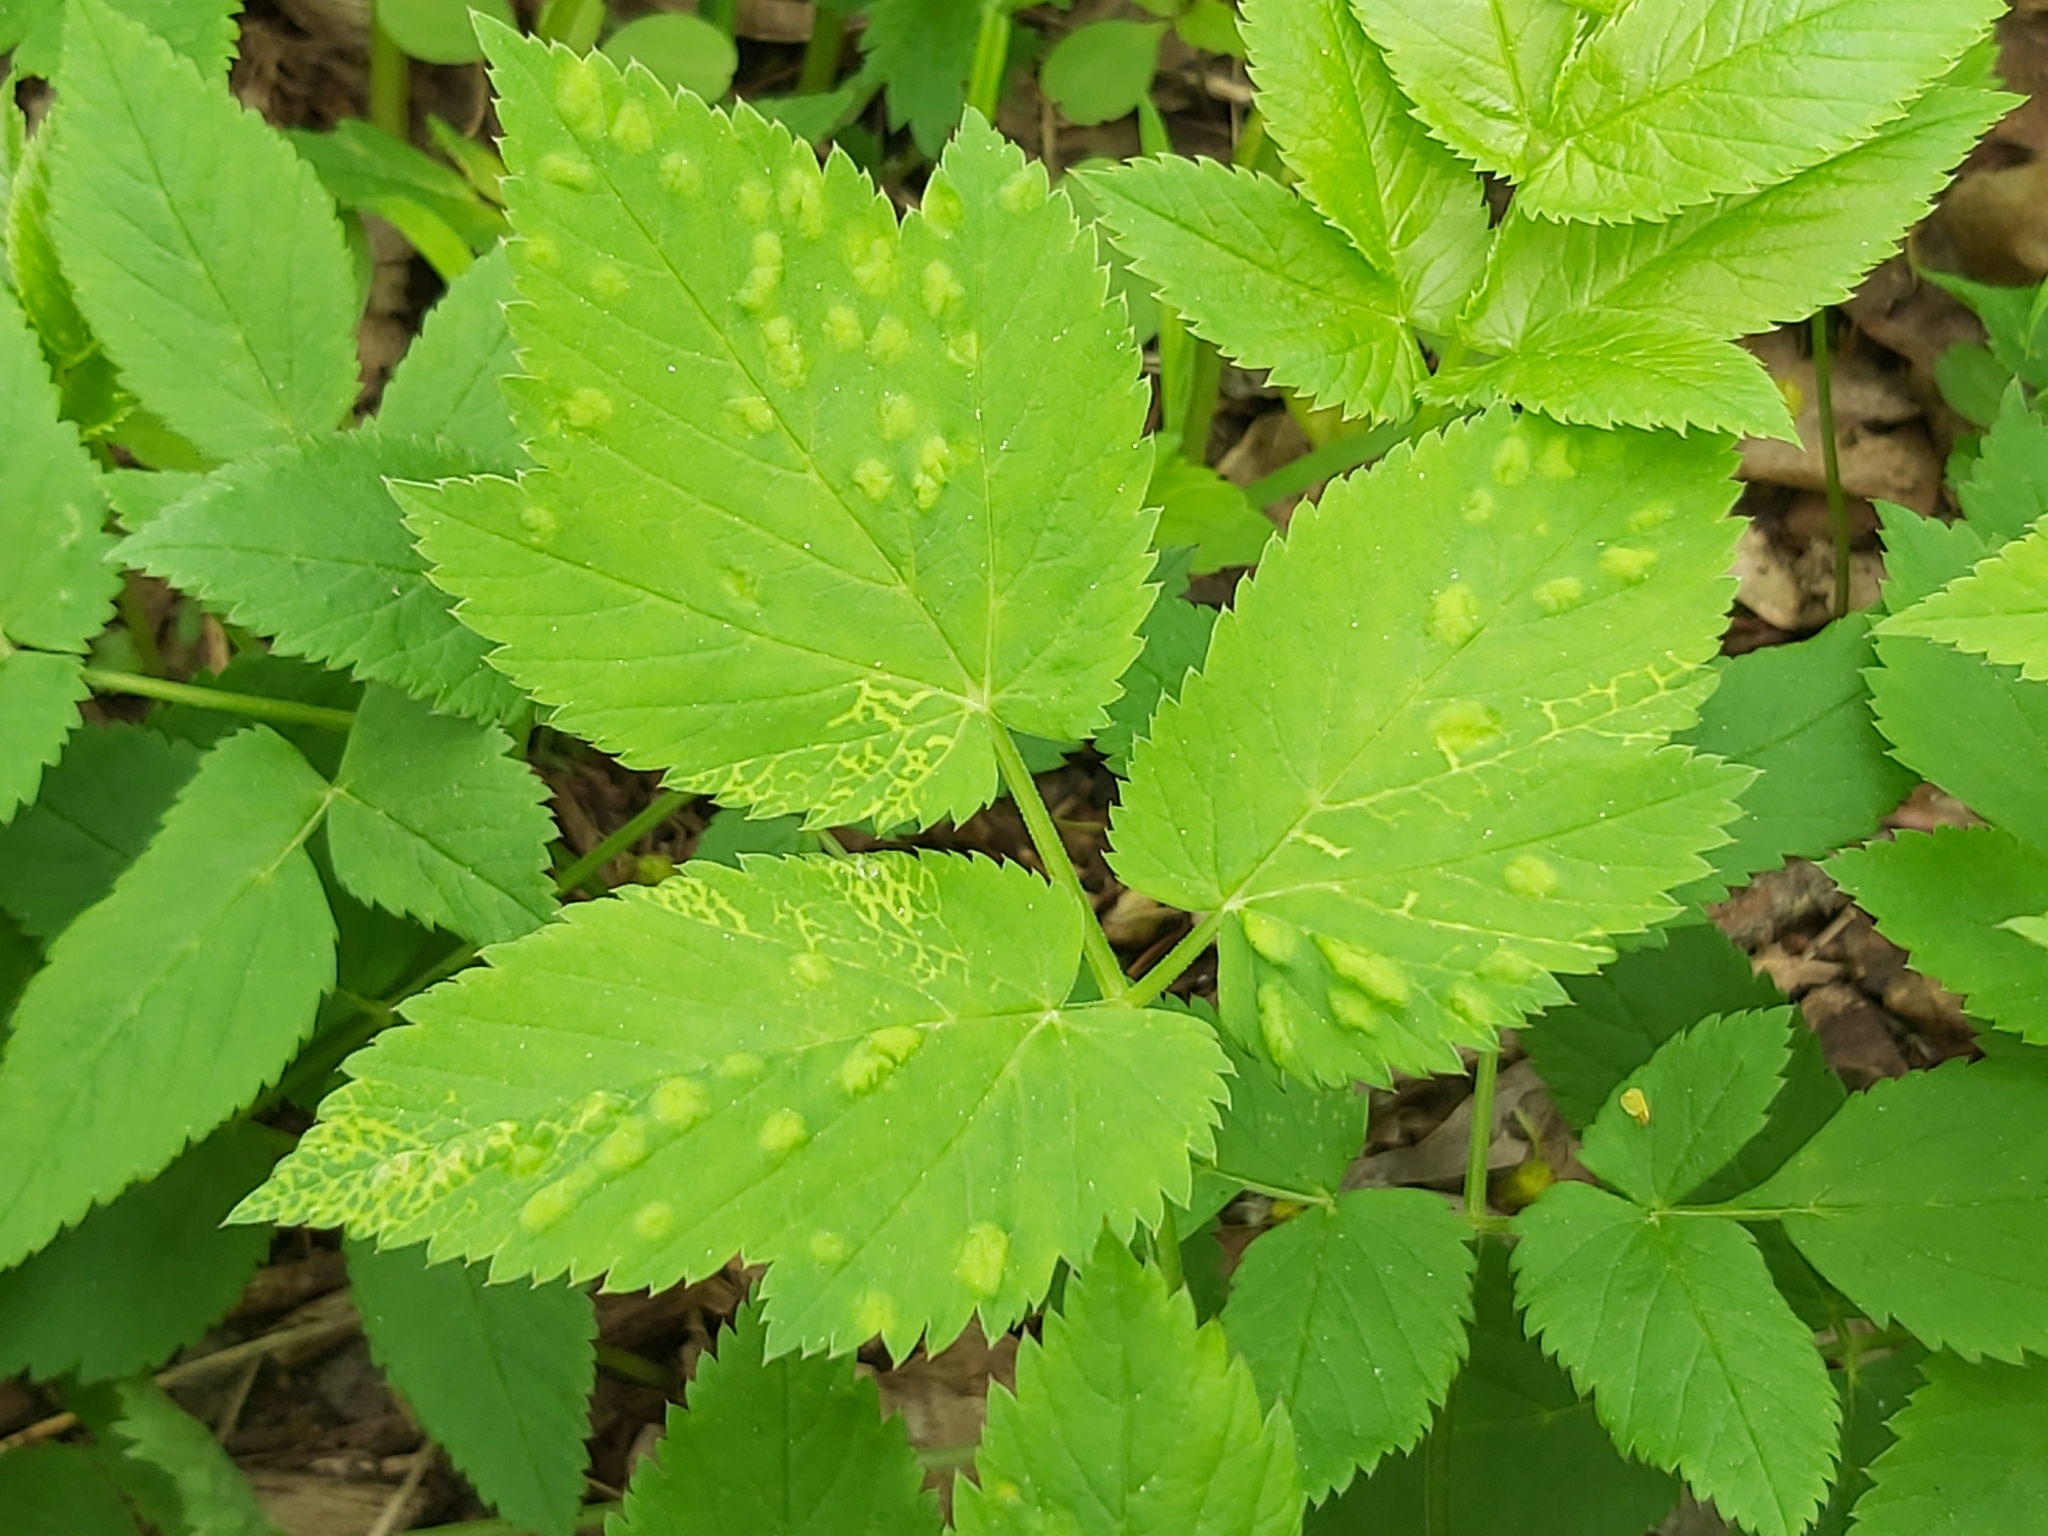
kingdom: Animalia
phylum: Arthropoda
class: Insecta
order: Hemiptera
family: Triozidae
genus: Trioza
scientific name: Trioza flavipennis
